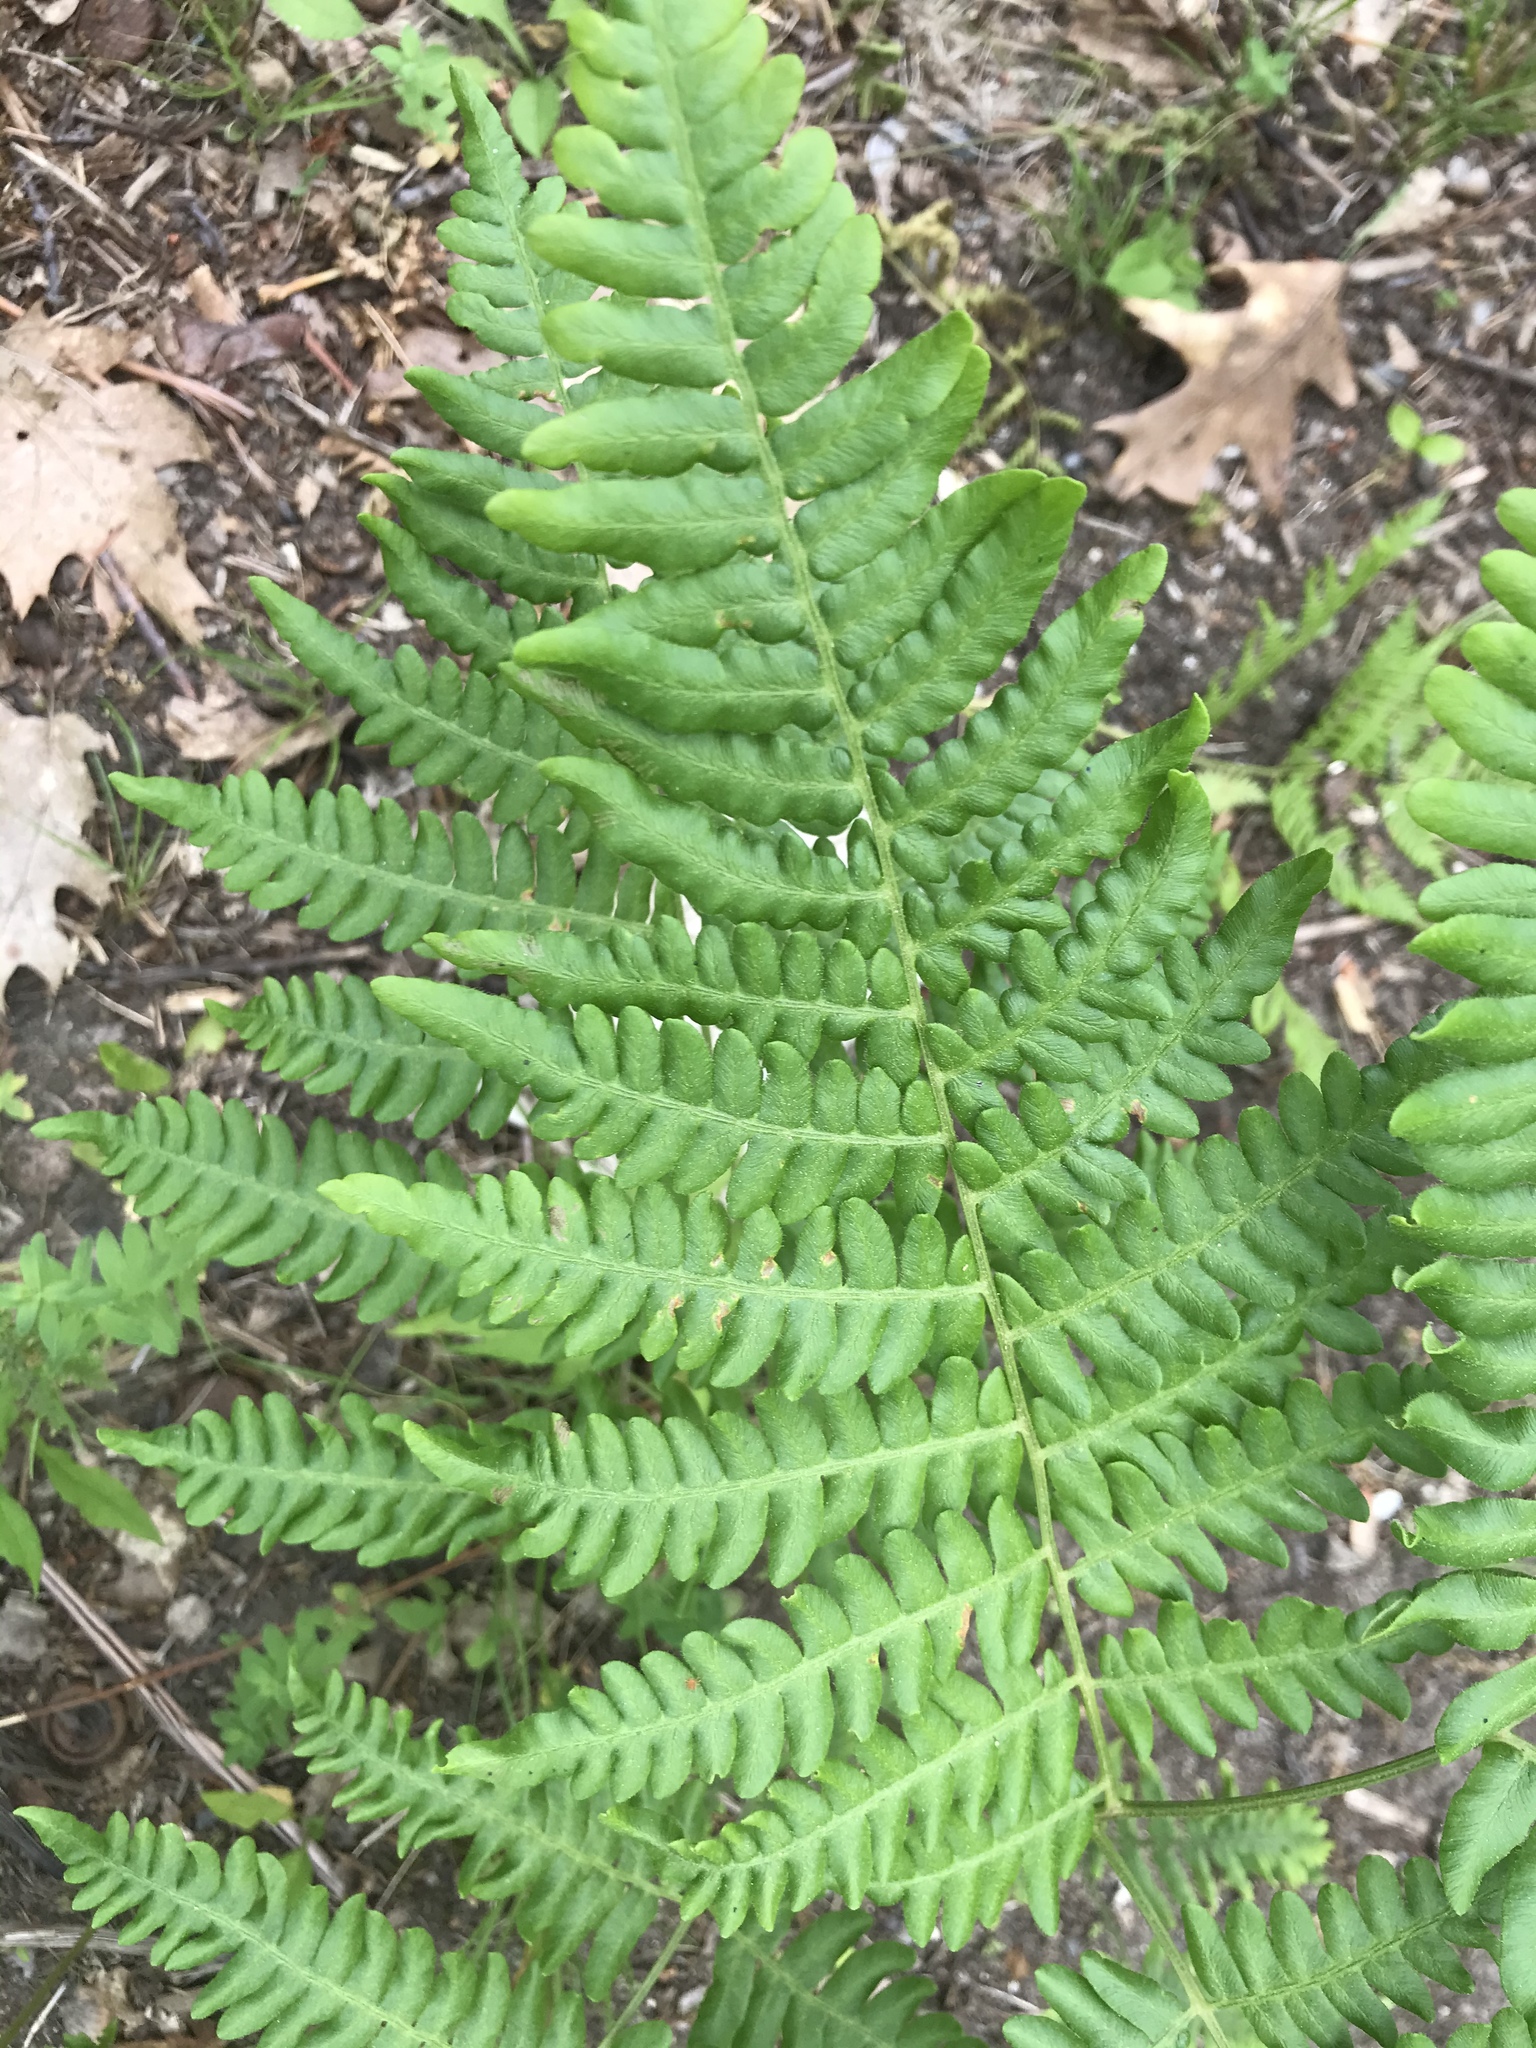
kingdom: Plantae
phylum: Tracheophyta
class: Polypodiopsida
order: Polypodiales
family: Dennstaedtiaceae
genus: Pteridium
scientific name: Pteridium aquilinum
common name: Bracken
